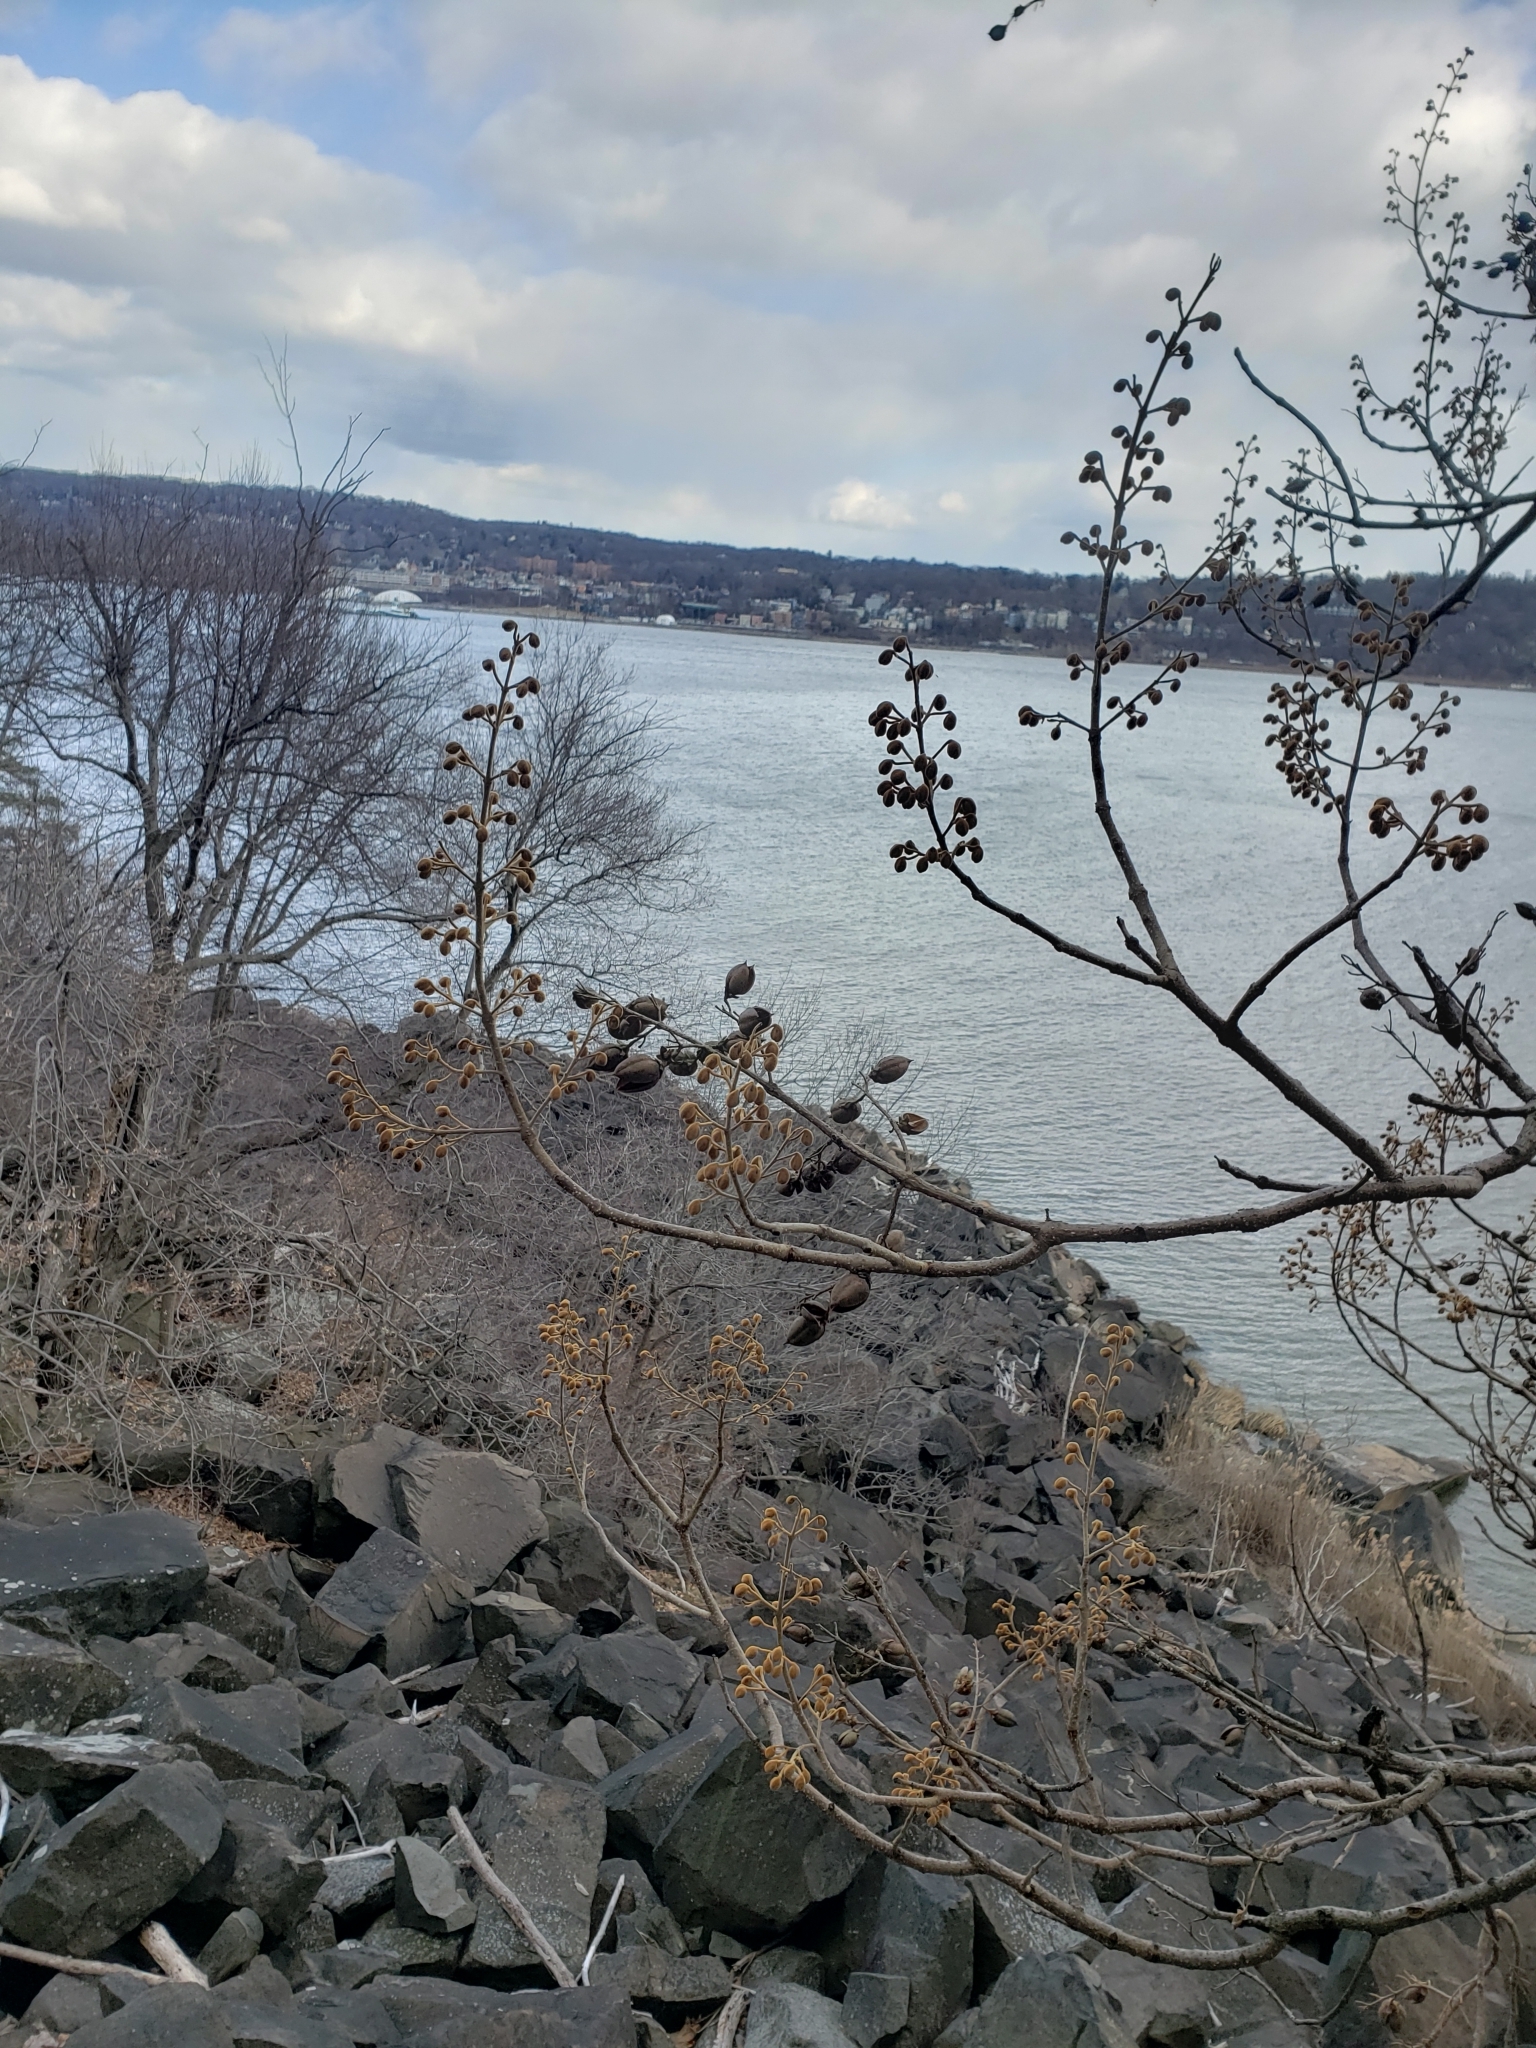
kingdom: Plantae
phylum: Tracheophyta
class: Magnoliopsida
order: Lamiales
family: Paulowniaceae
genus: Paulownia
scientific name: Paulownia tomentosa
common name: Foxglove-tree
